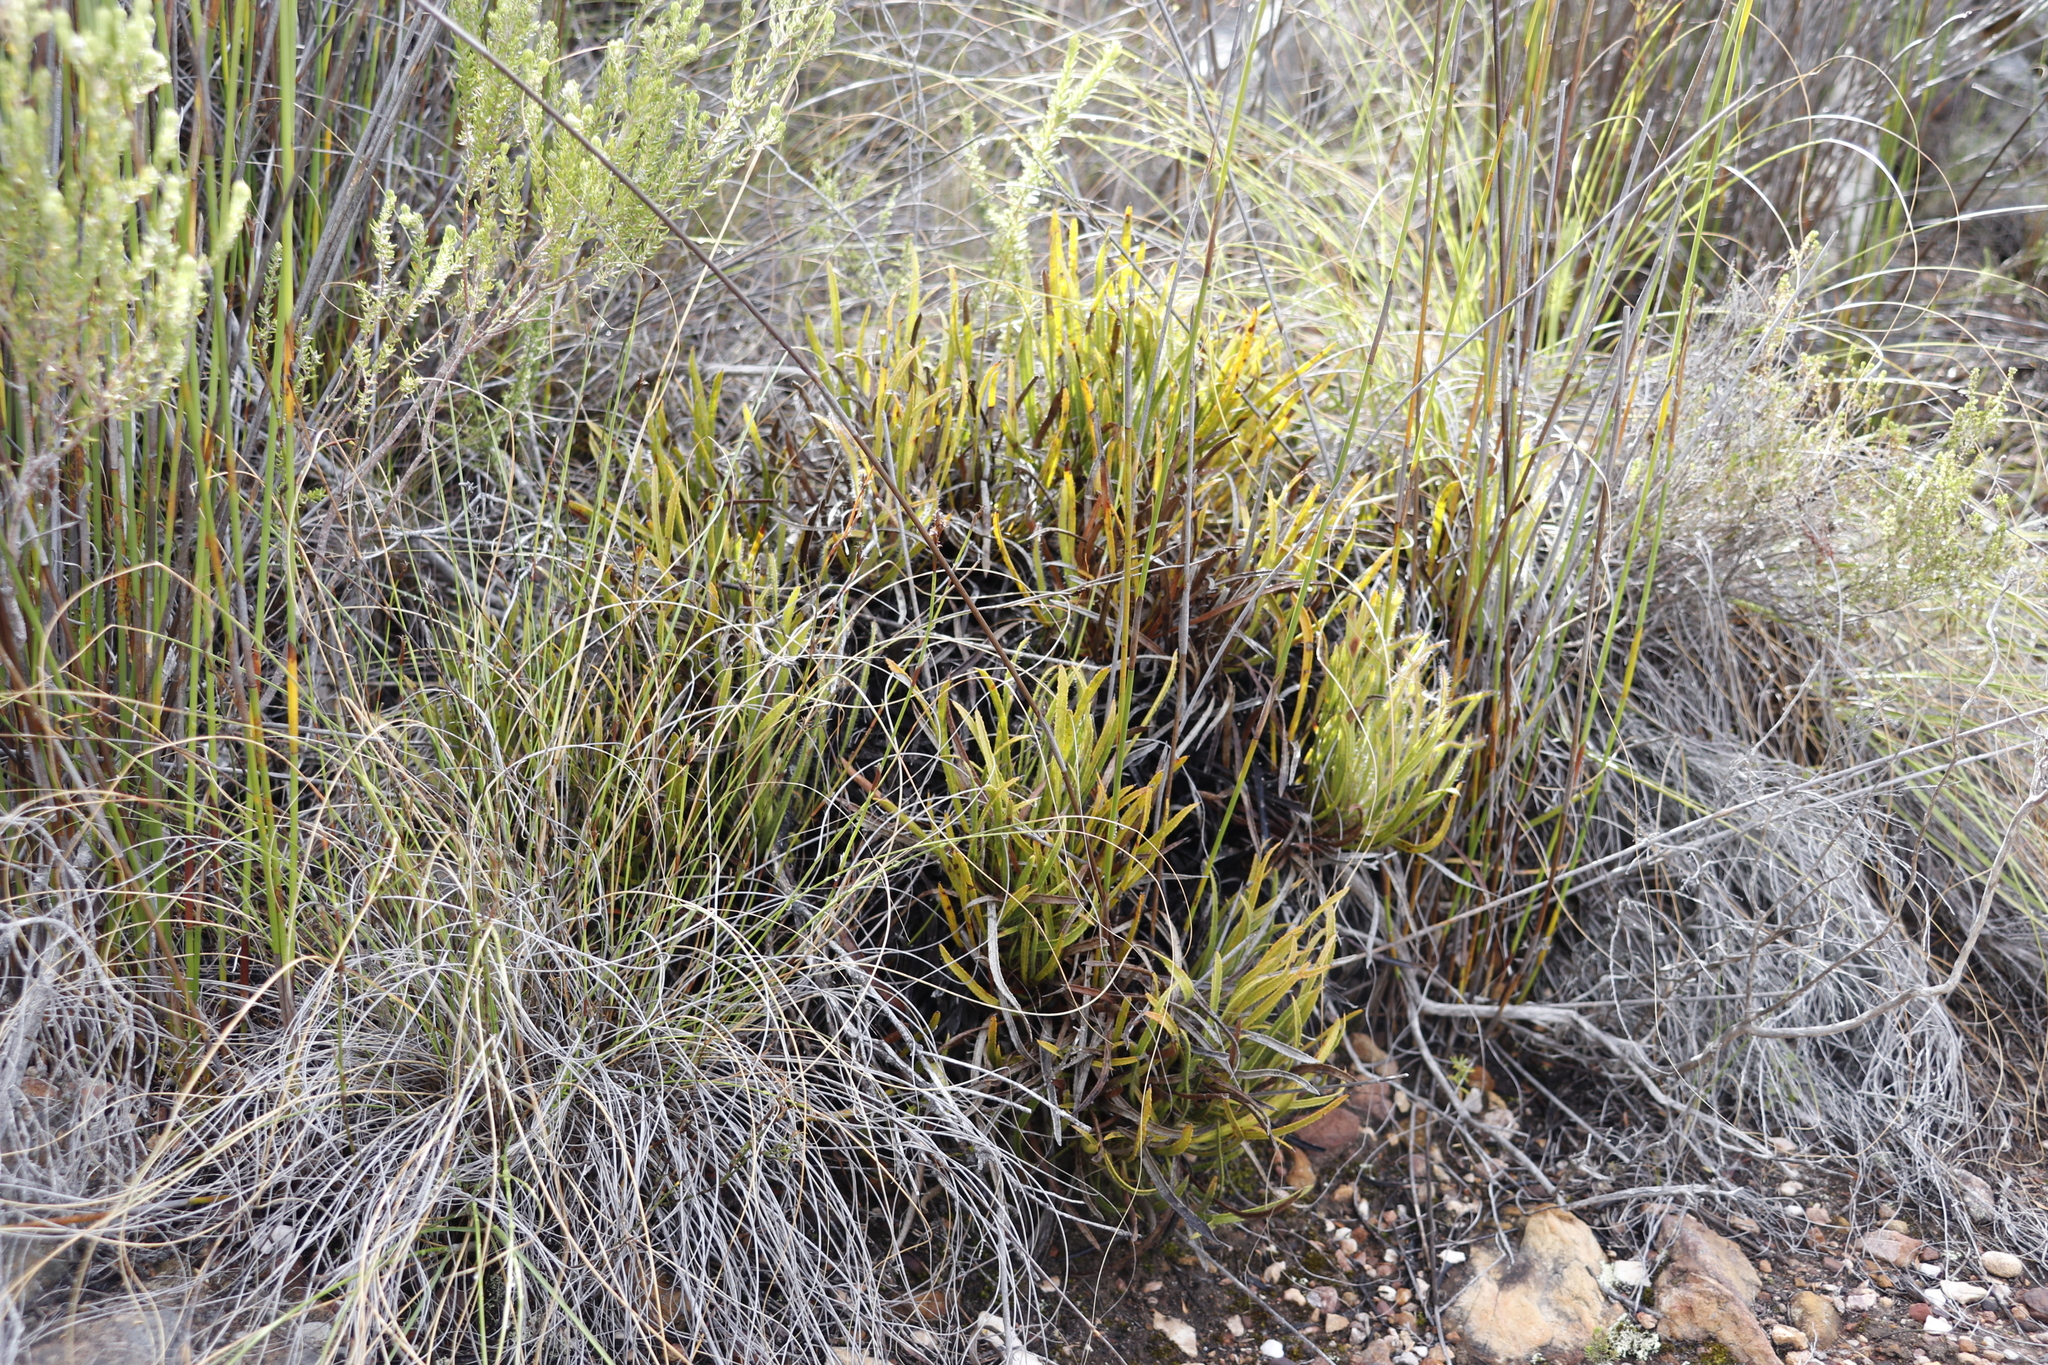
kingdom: Plantae
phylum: Tracheophyta
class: Magnoliopsida
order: Proteales
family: Proteaceae
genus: Protea
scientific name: Protea denticulata
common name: Tooth-leaf sugarbush
